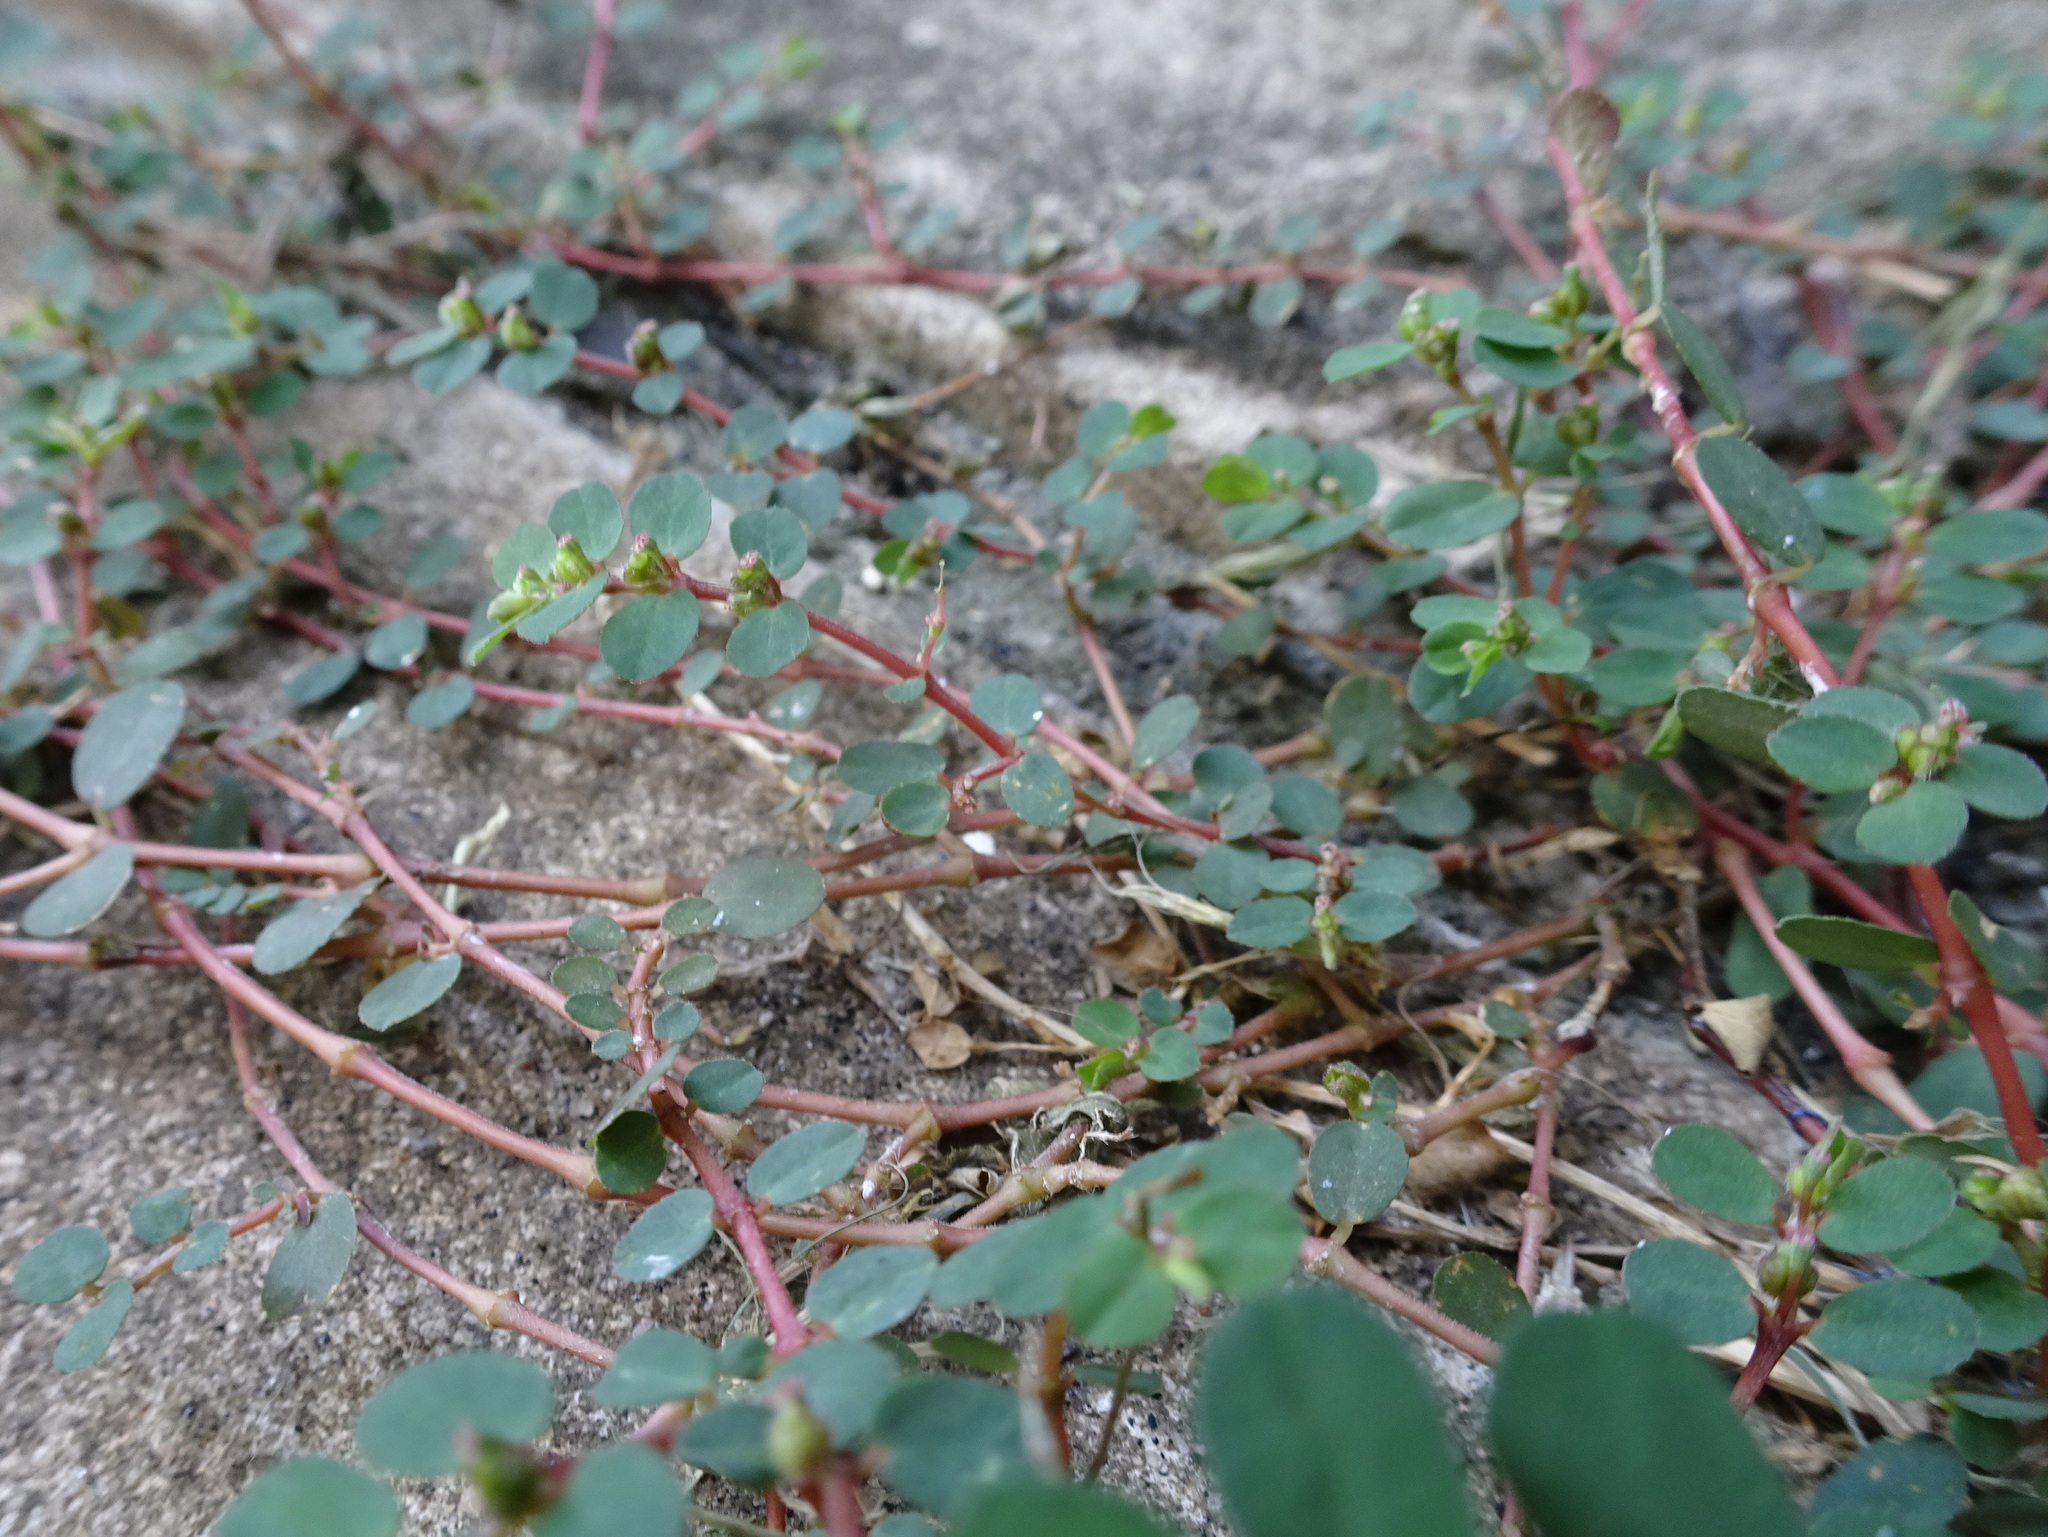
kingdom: Plantae
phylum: Tracheophyta
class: Magnoliopsida
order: Malpighiales
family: Euphorbiaceae
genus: Euphorbia
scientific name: Euphorbia prostrata
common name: Prostrate sandmat
